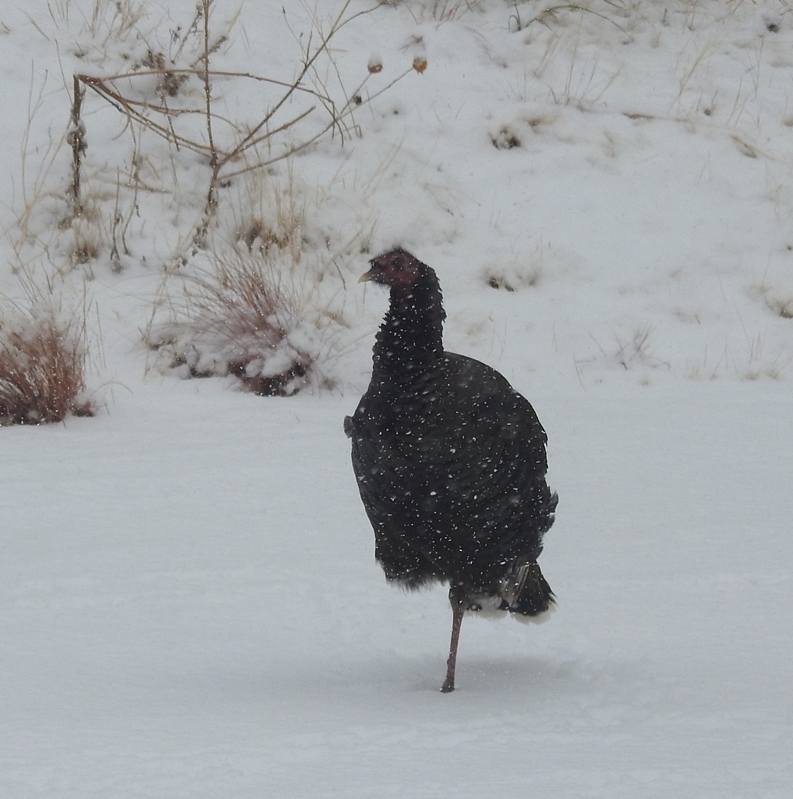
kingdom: Animalia
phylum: Chordata
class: Aves
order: Galliformes
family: Phasianidae
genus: Meleagris
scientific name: Meleagris gallopavo
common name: Wild turkey
